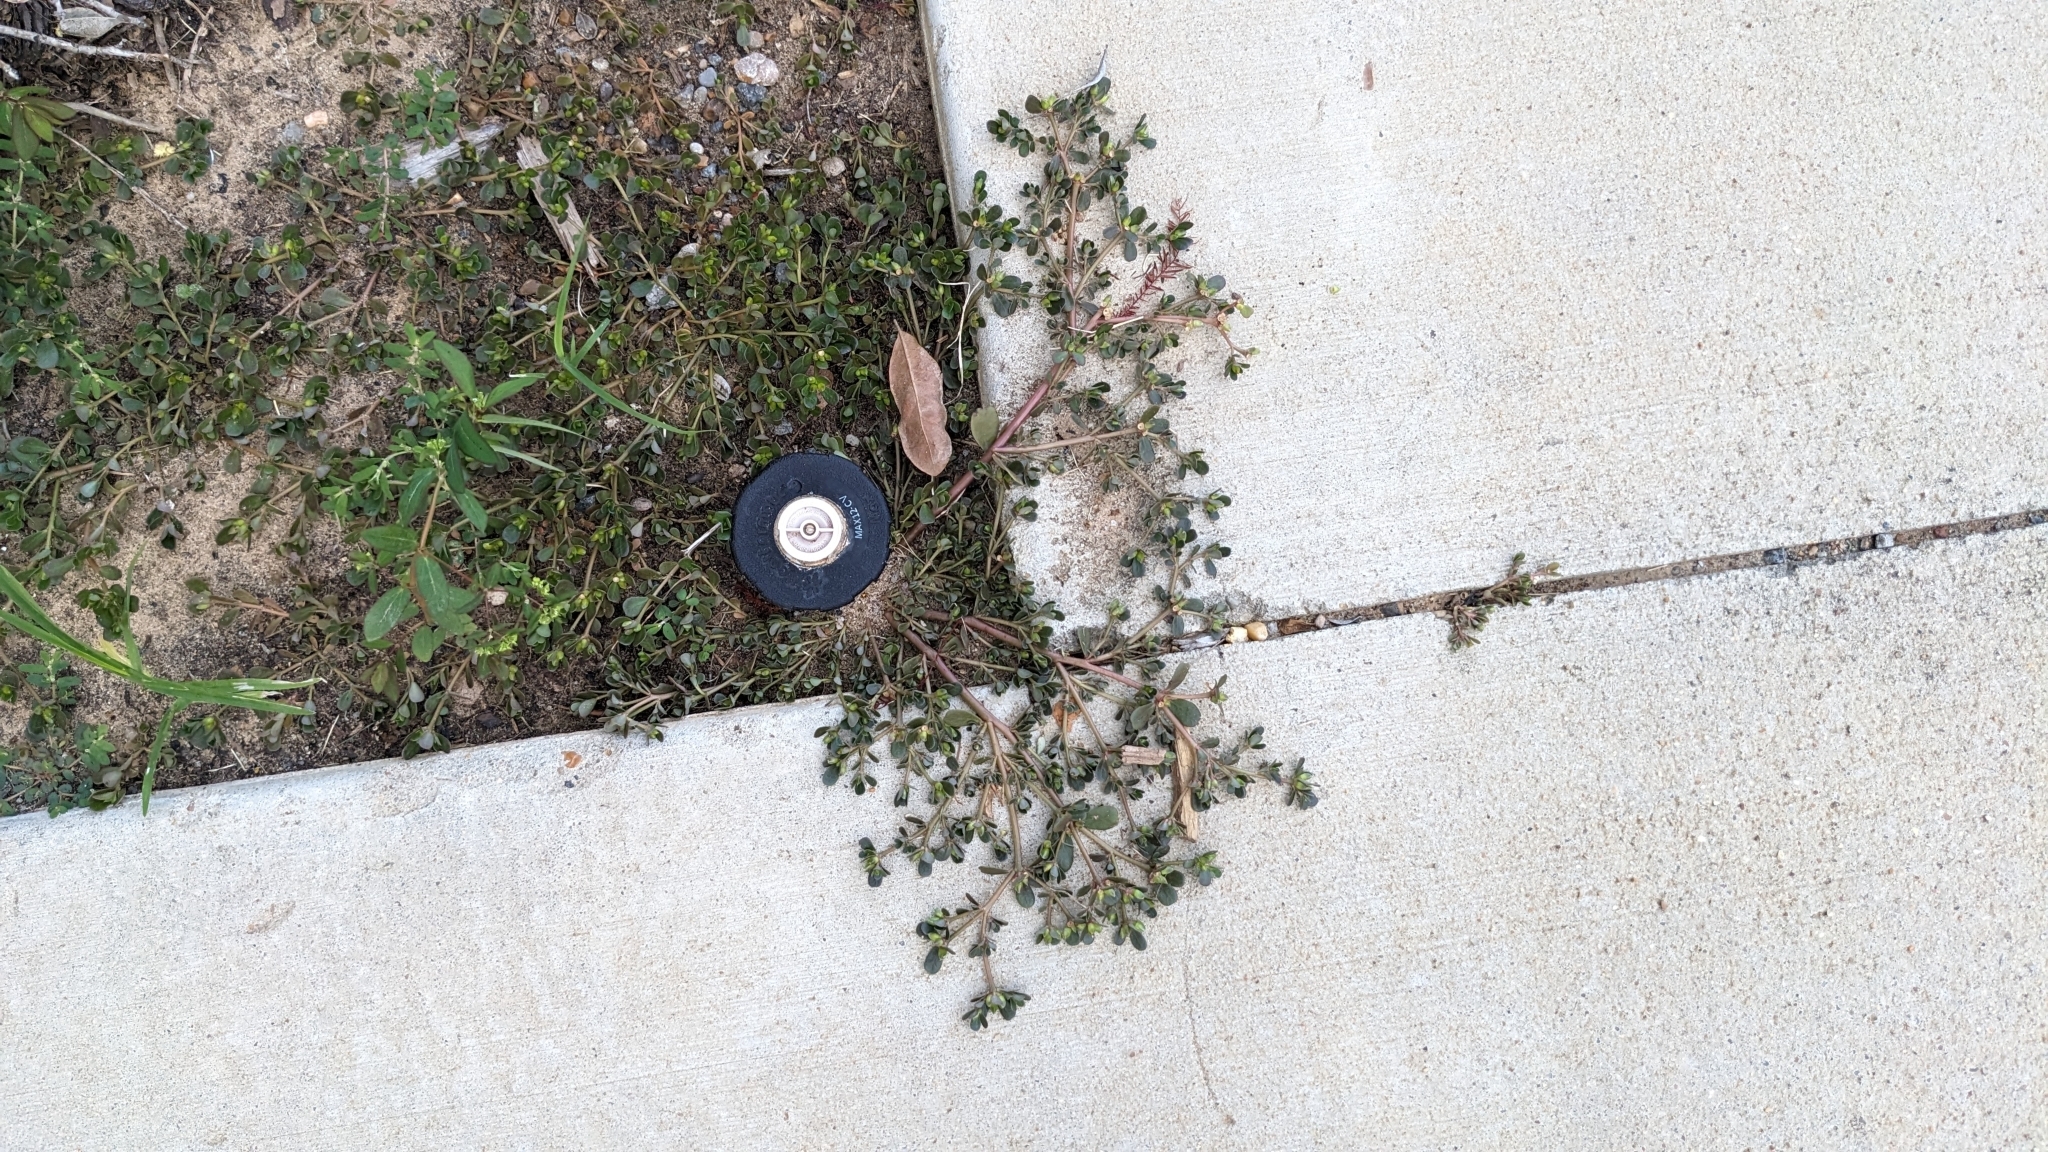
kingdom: Plantae
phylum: Tracheophyta
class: Magnoliopsida
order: Caryophyllales
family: Portulacaceae
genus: Portulaca
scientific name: Portulaca oleracea
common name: Common purslane
